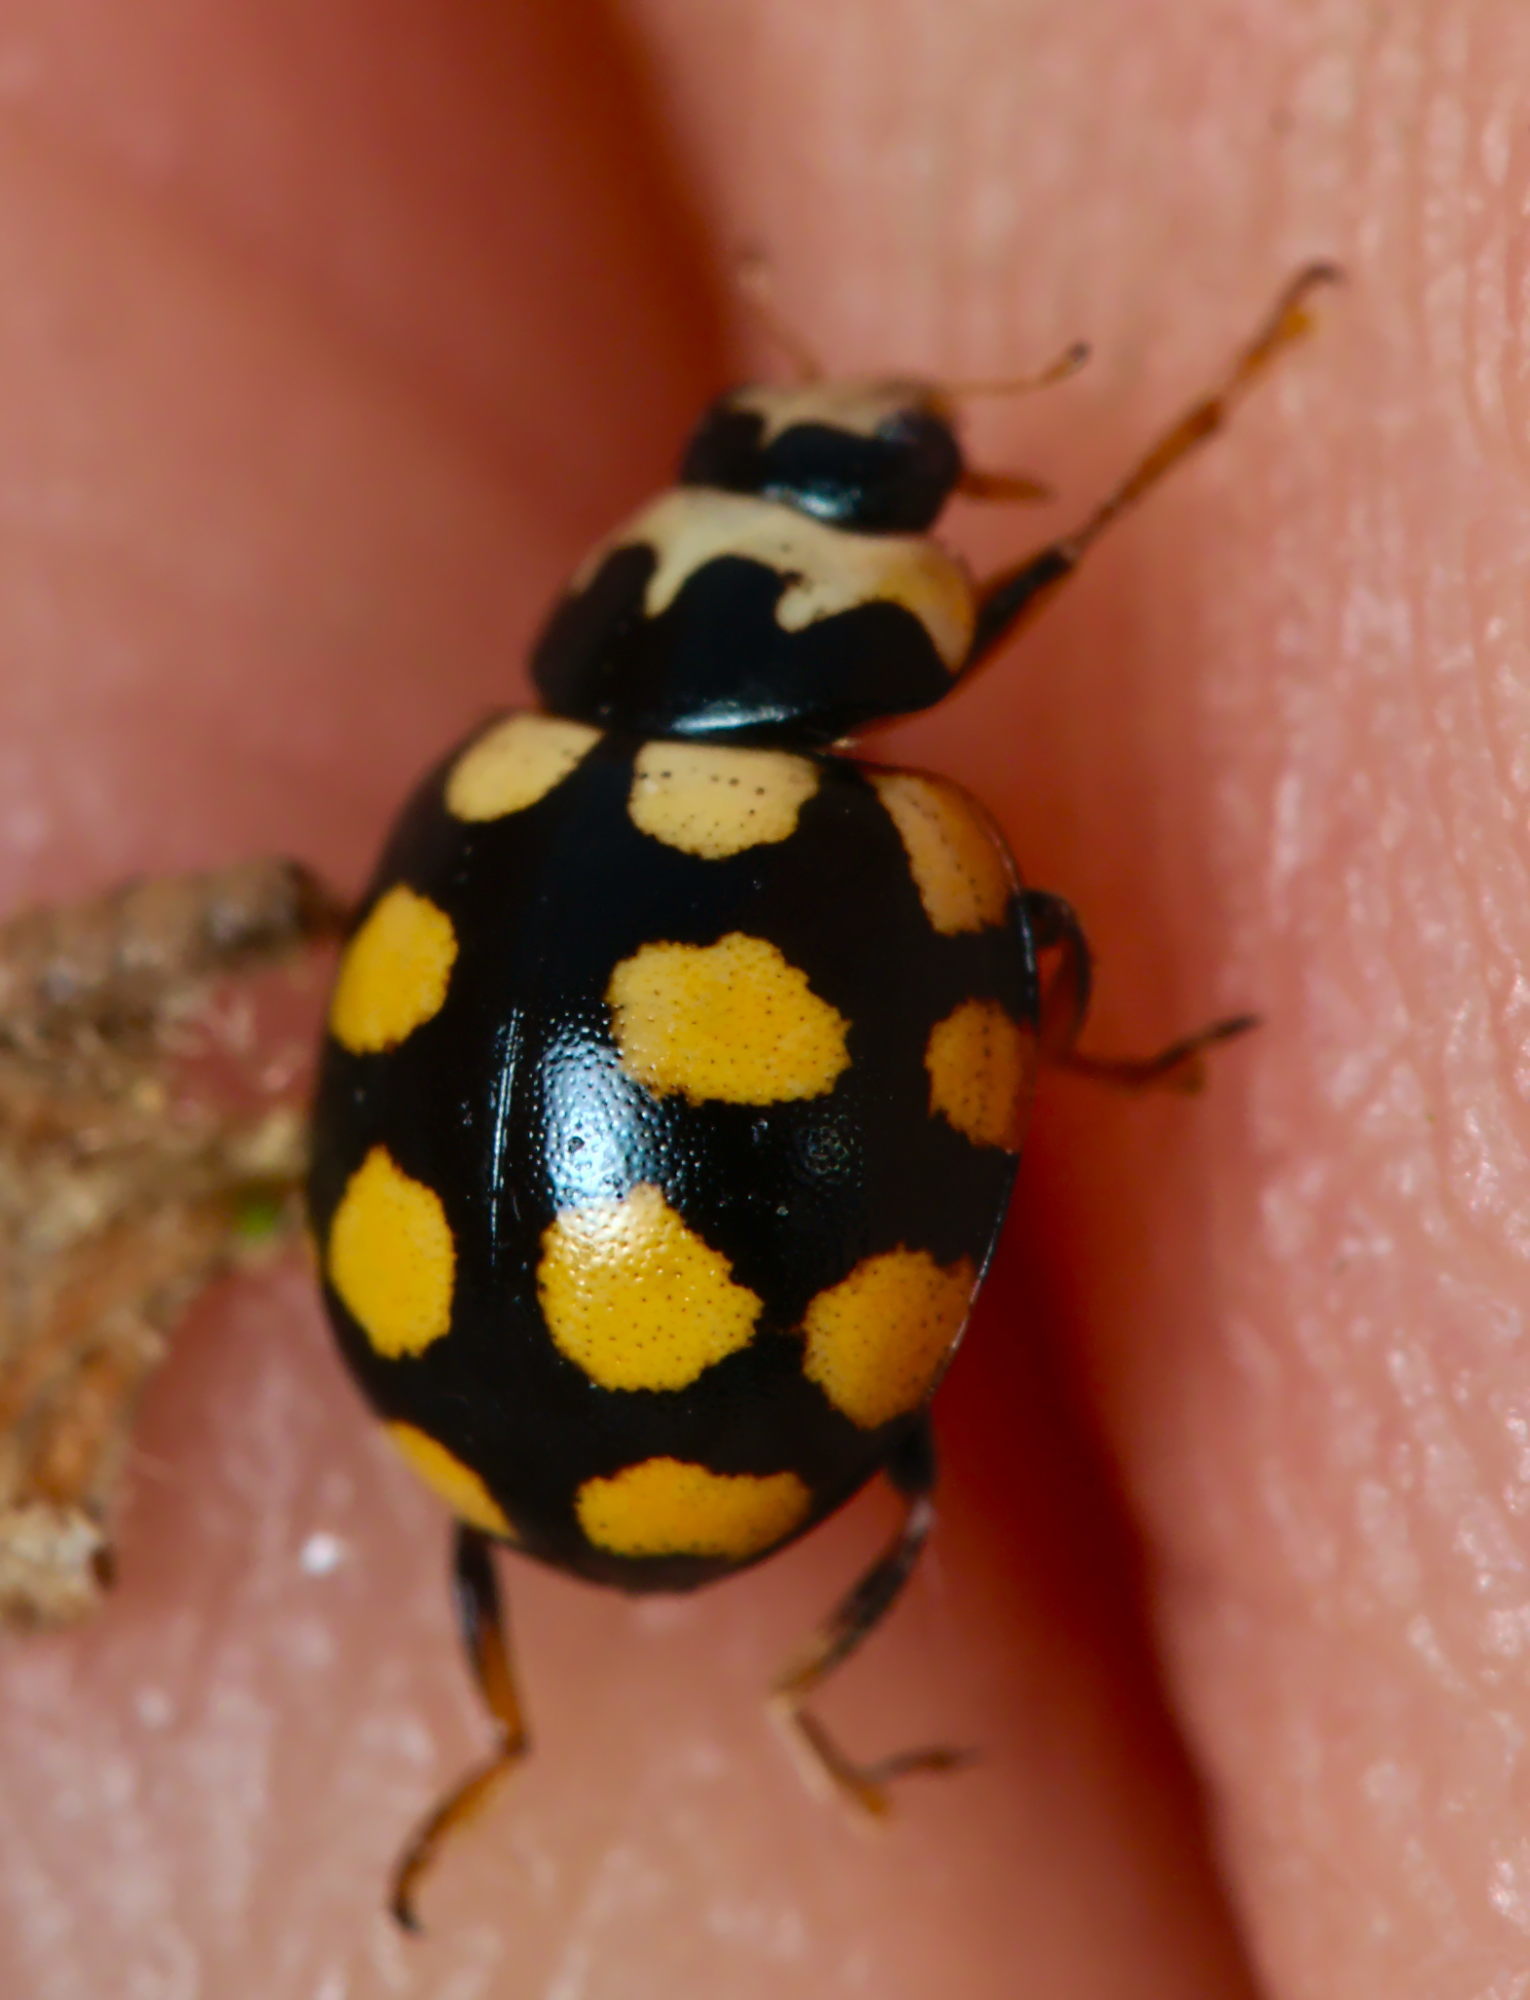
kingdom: Animalia
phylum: Arthropoda
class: Insecta
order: Coleoptera
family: Coccinellidae
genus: Coccinula
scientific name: Coccinula quatuordecimpustulata
